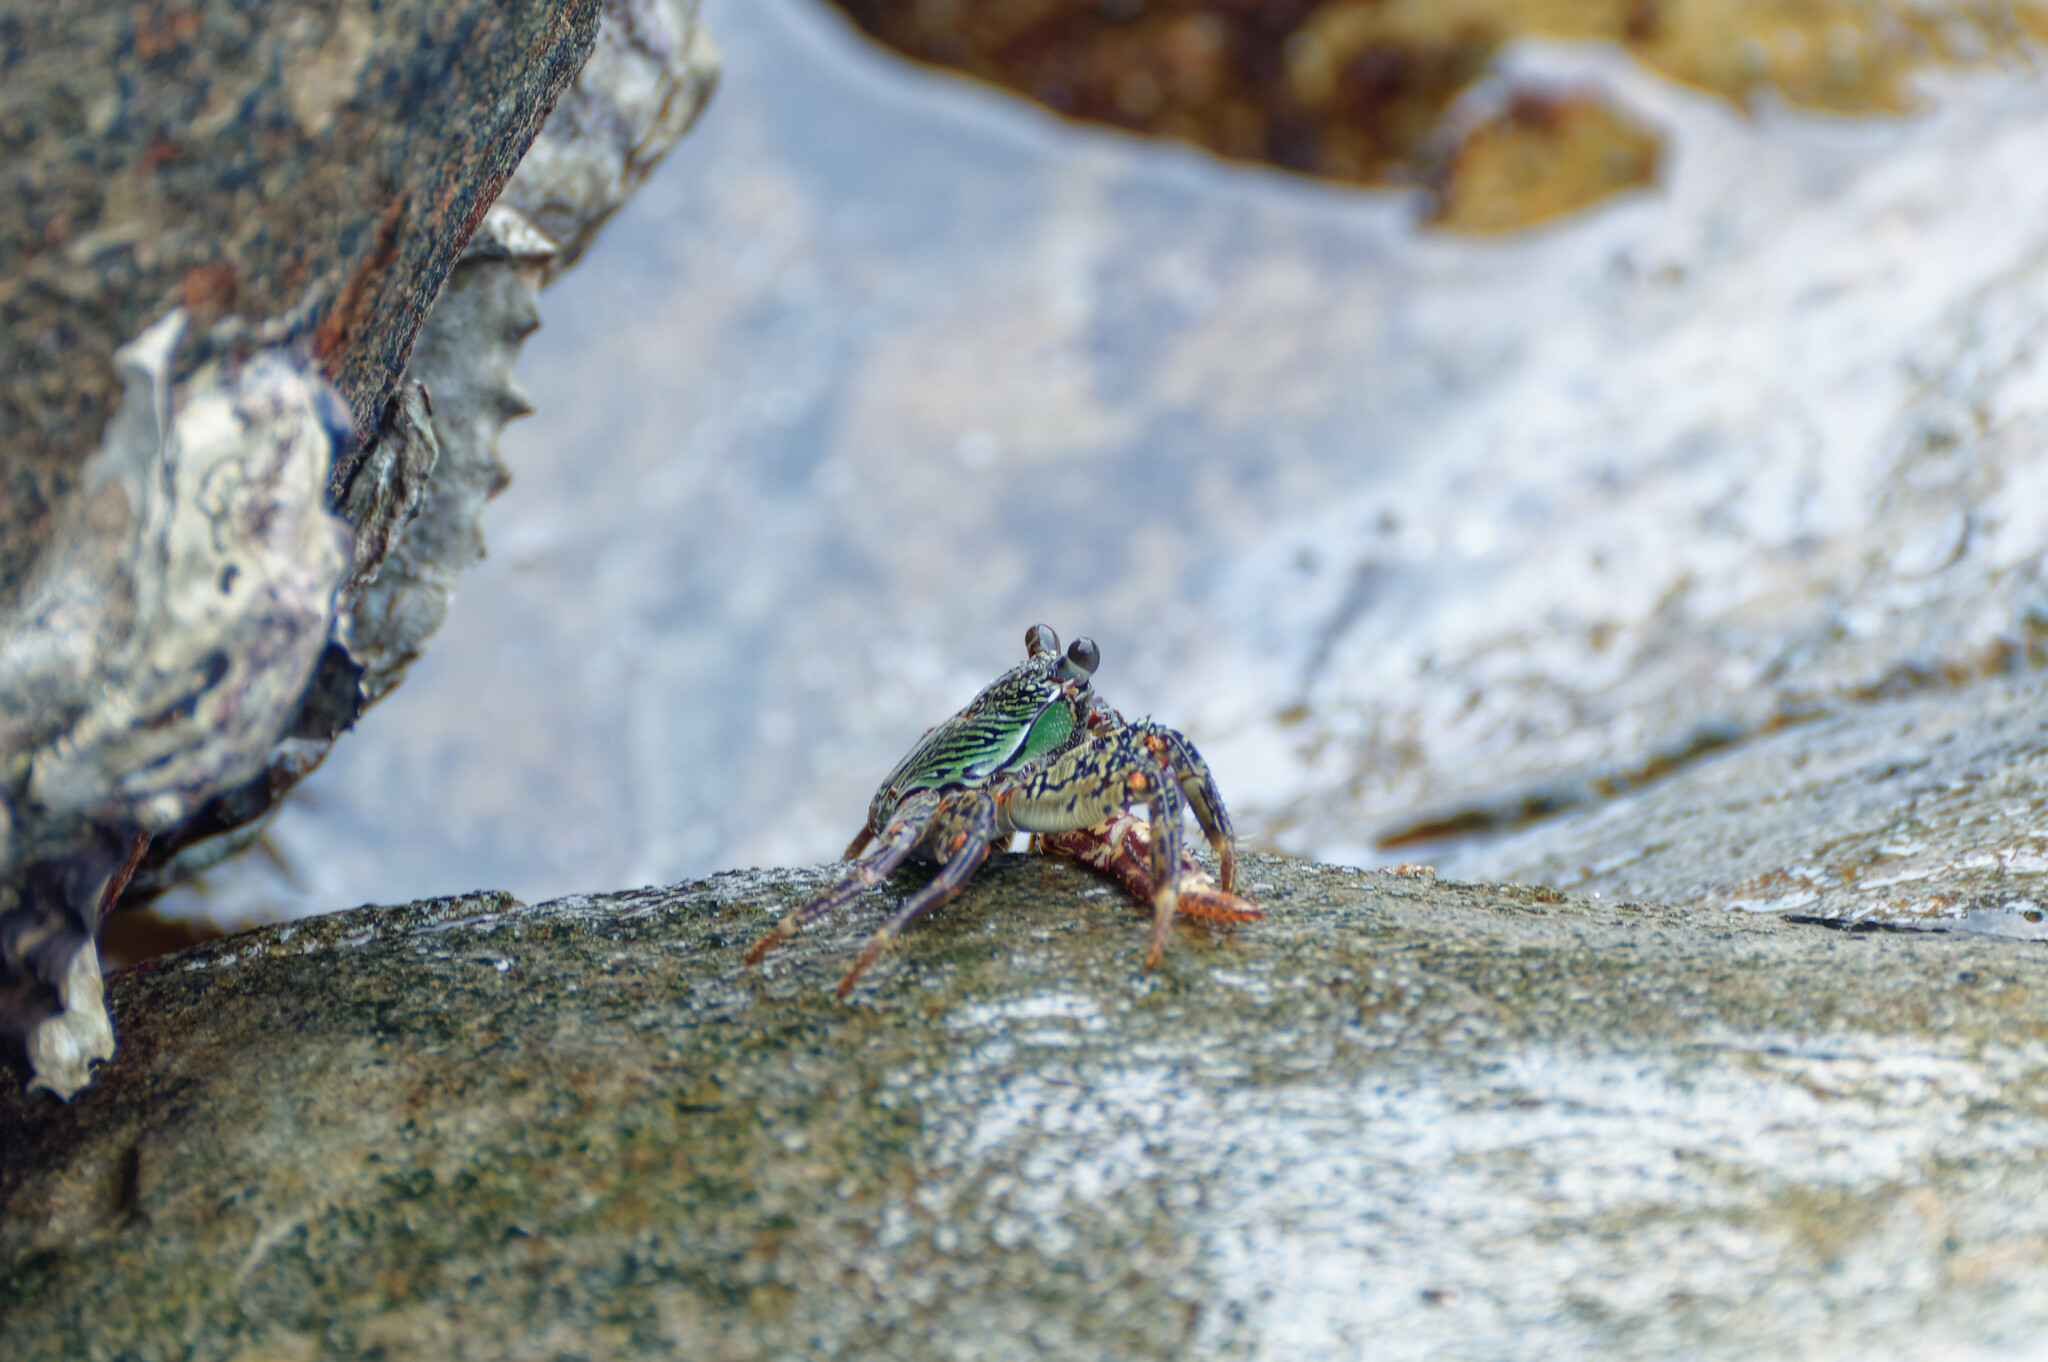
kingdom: Animalia
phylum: Arthropoda
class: Malacostraca
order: Decapoda
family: Grapsidae
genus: Grapsus
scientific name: Grapsus albolineatus
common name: Mottled lightfoot crab
